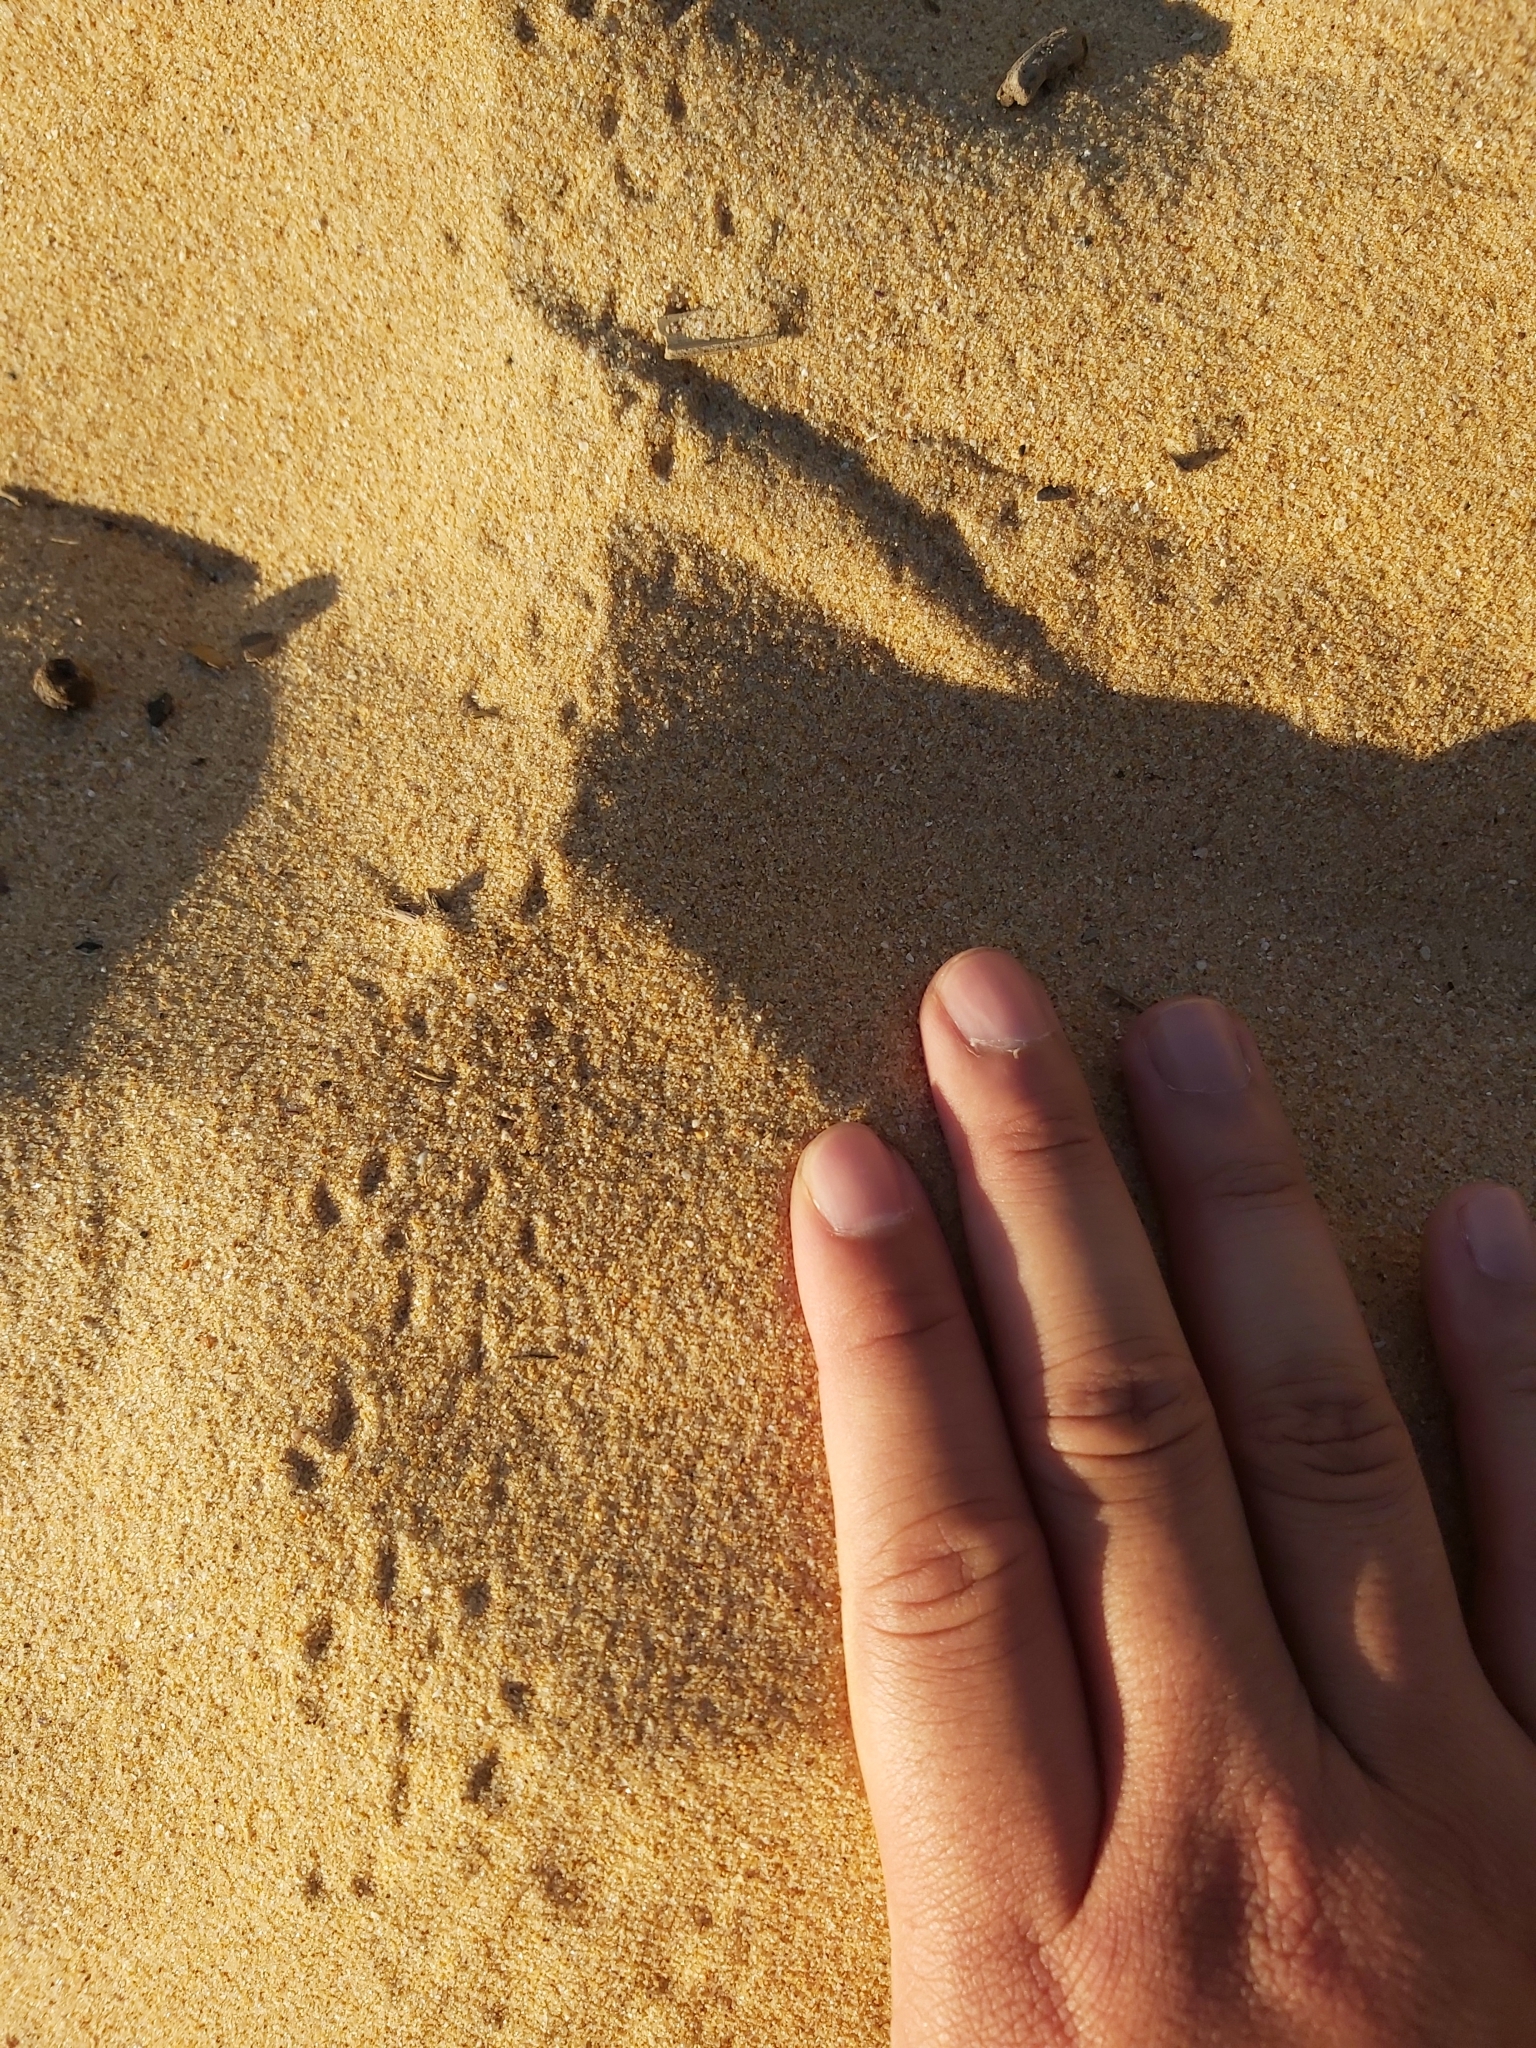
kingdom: Animalia
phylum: Arthropoda
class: Malacostraca
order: Decapoda
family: Ocypodidae
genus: Ocypode
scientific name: Ocypode cordimana
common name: Smooth-eyed ghost crab
